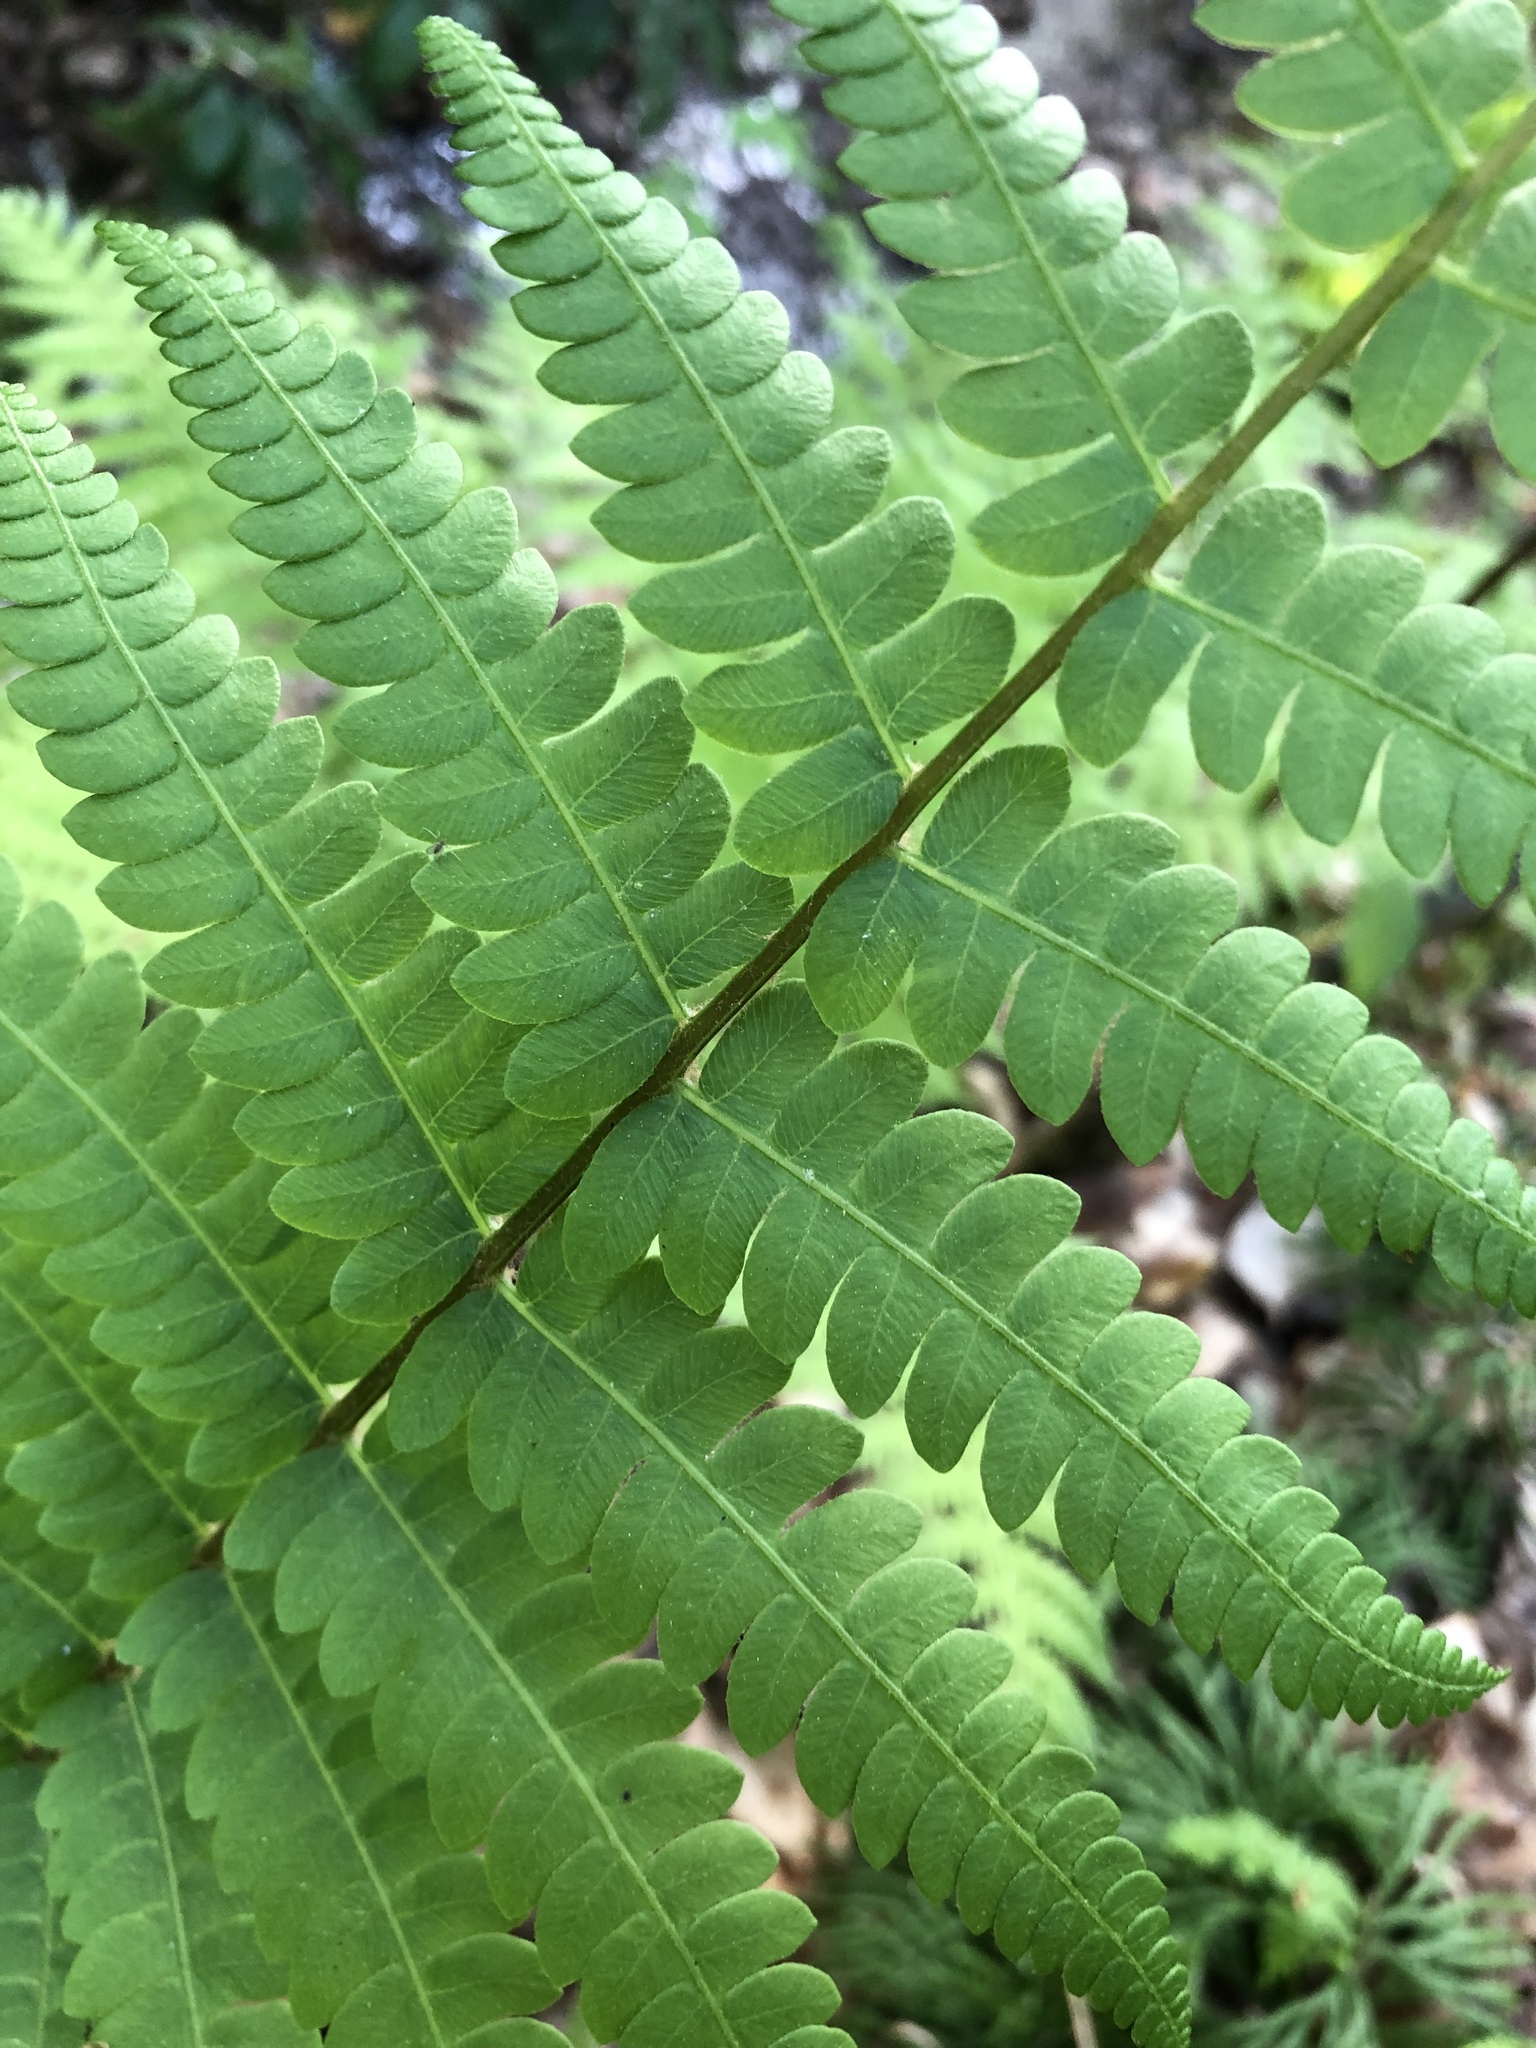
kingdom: Plantae
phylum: Tracheophyta
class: Polypodiopsida
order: Osmundales
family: Osmundaceae
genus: Osmundastrum
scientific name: Osmundastrum cinnamomeum
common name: Cinnamon fern
